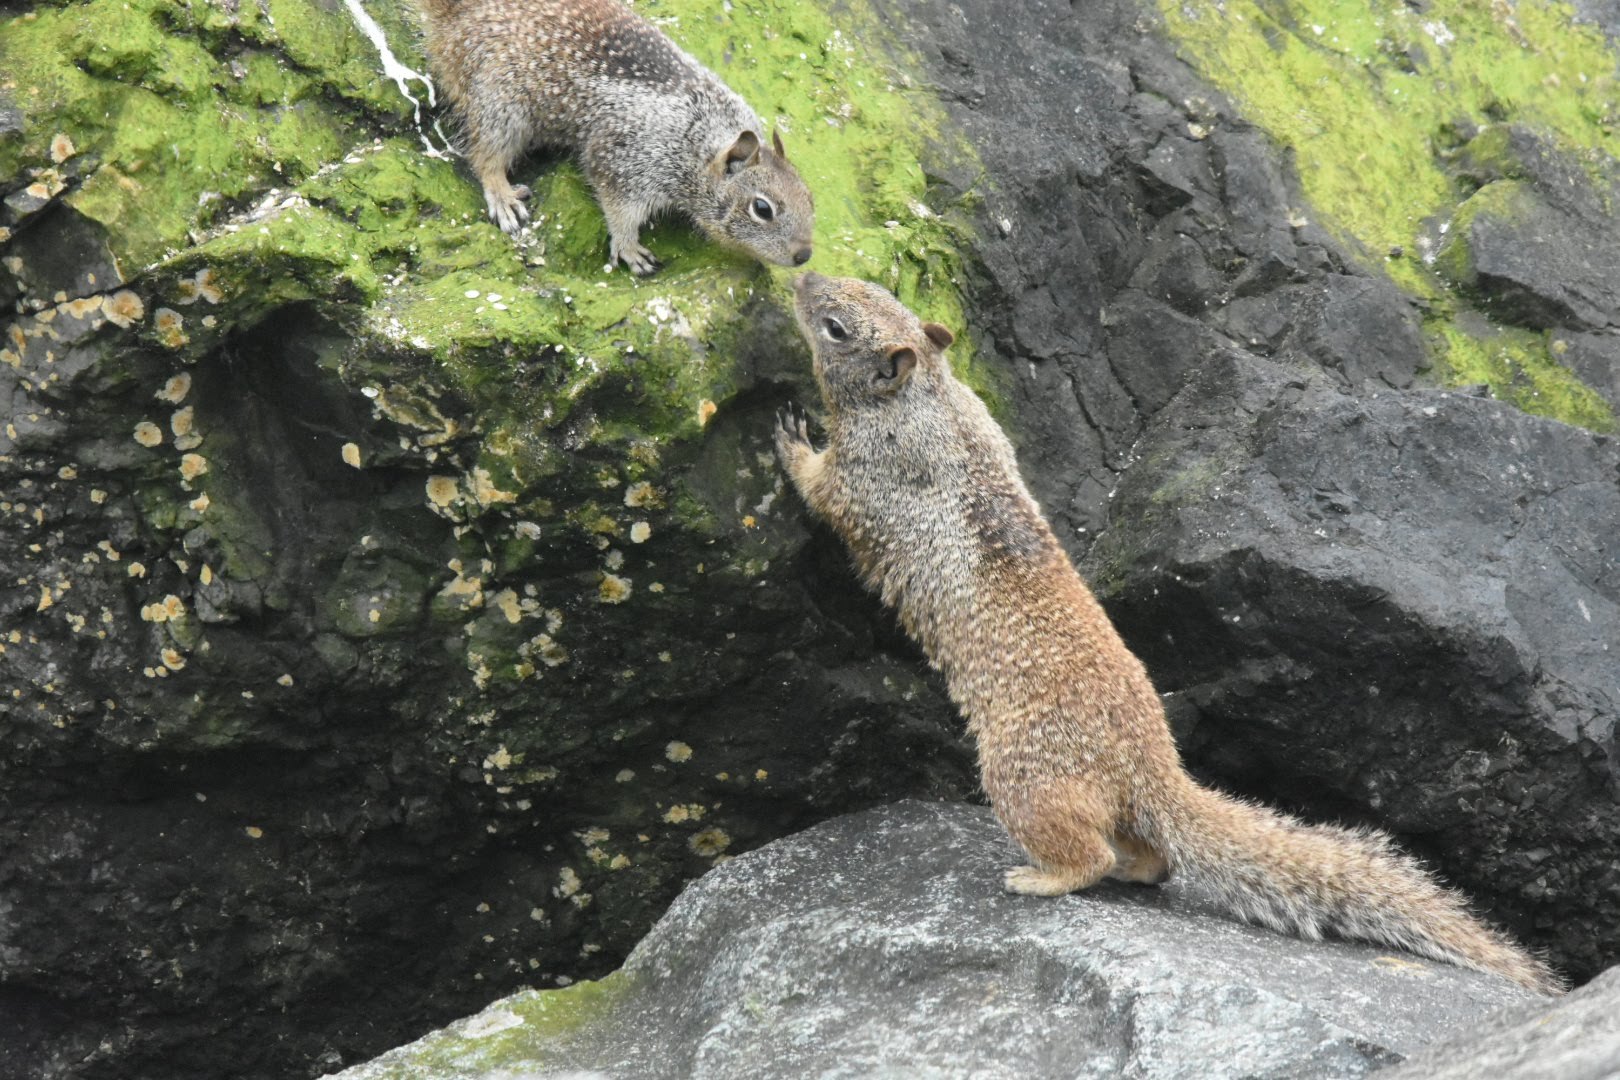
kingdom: Animalia
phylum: Chordata
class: Mammalia
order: Rodentia
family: Sciuridae
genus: Otospermophilus
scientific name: Otospermophilus beecheyi
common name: California ground squirrel
